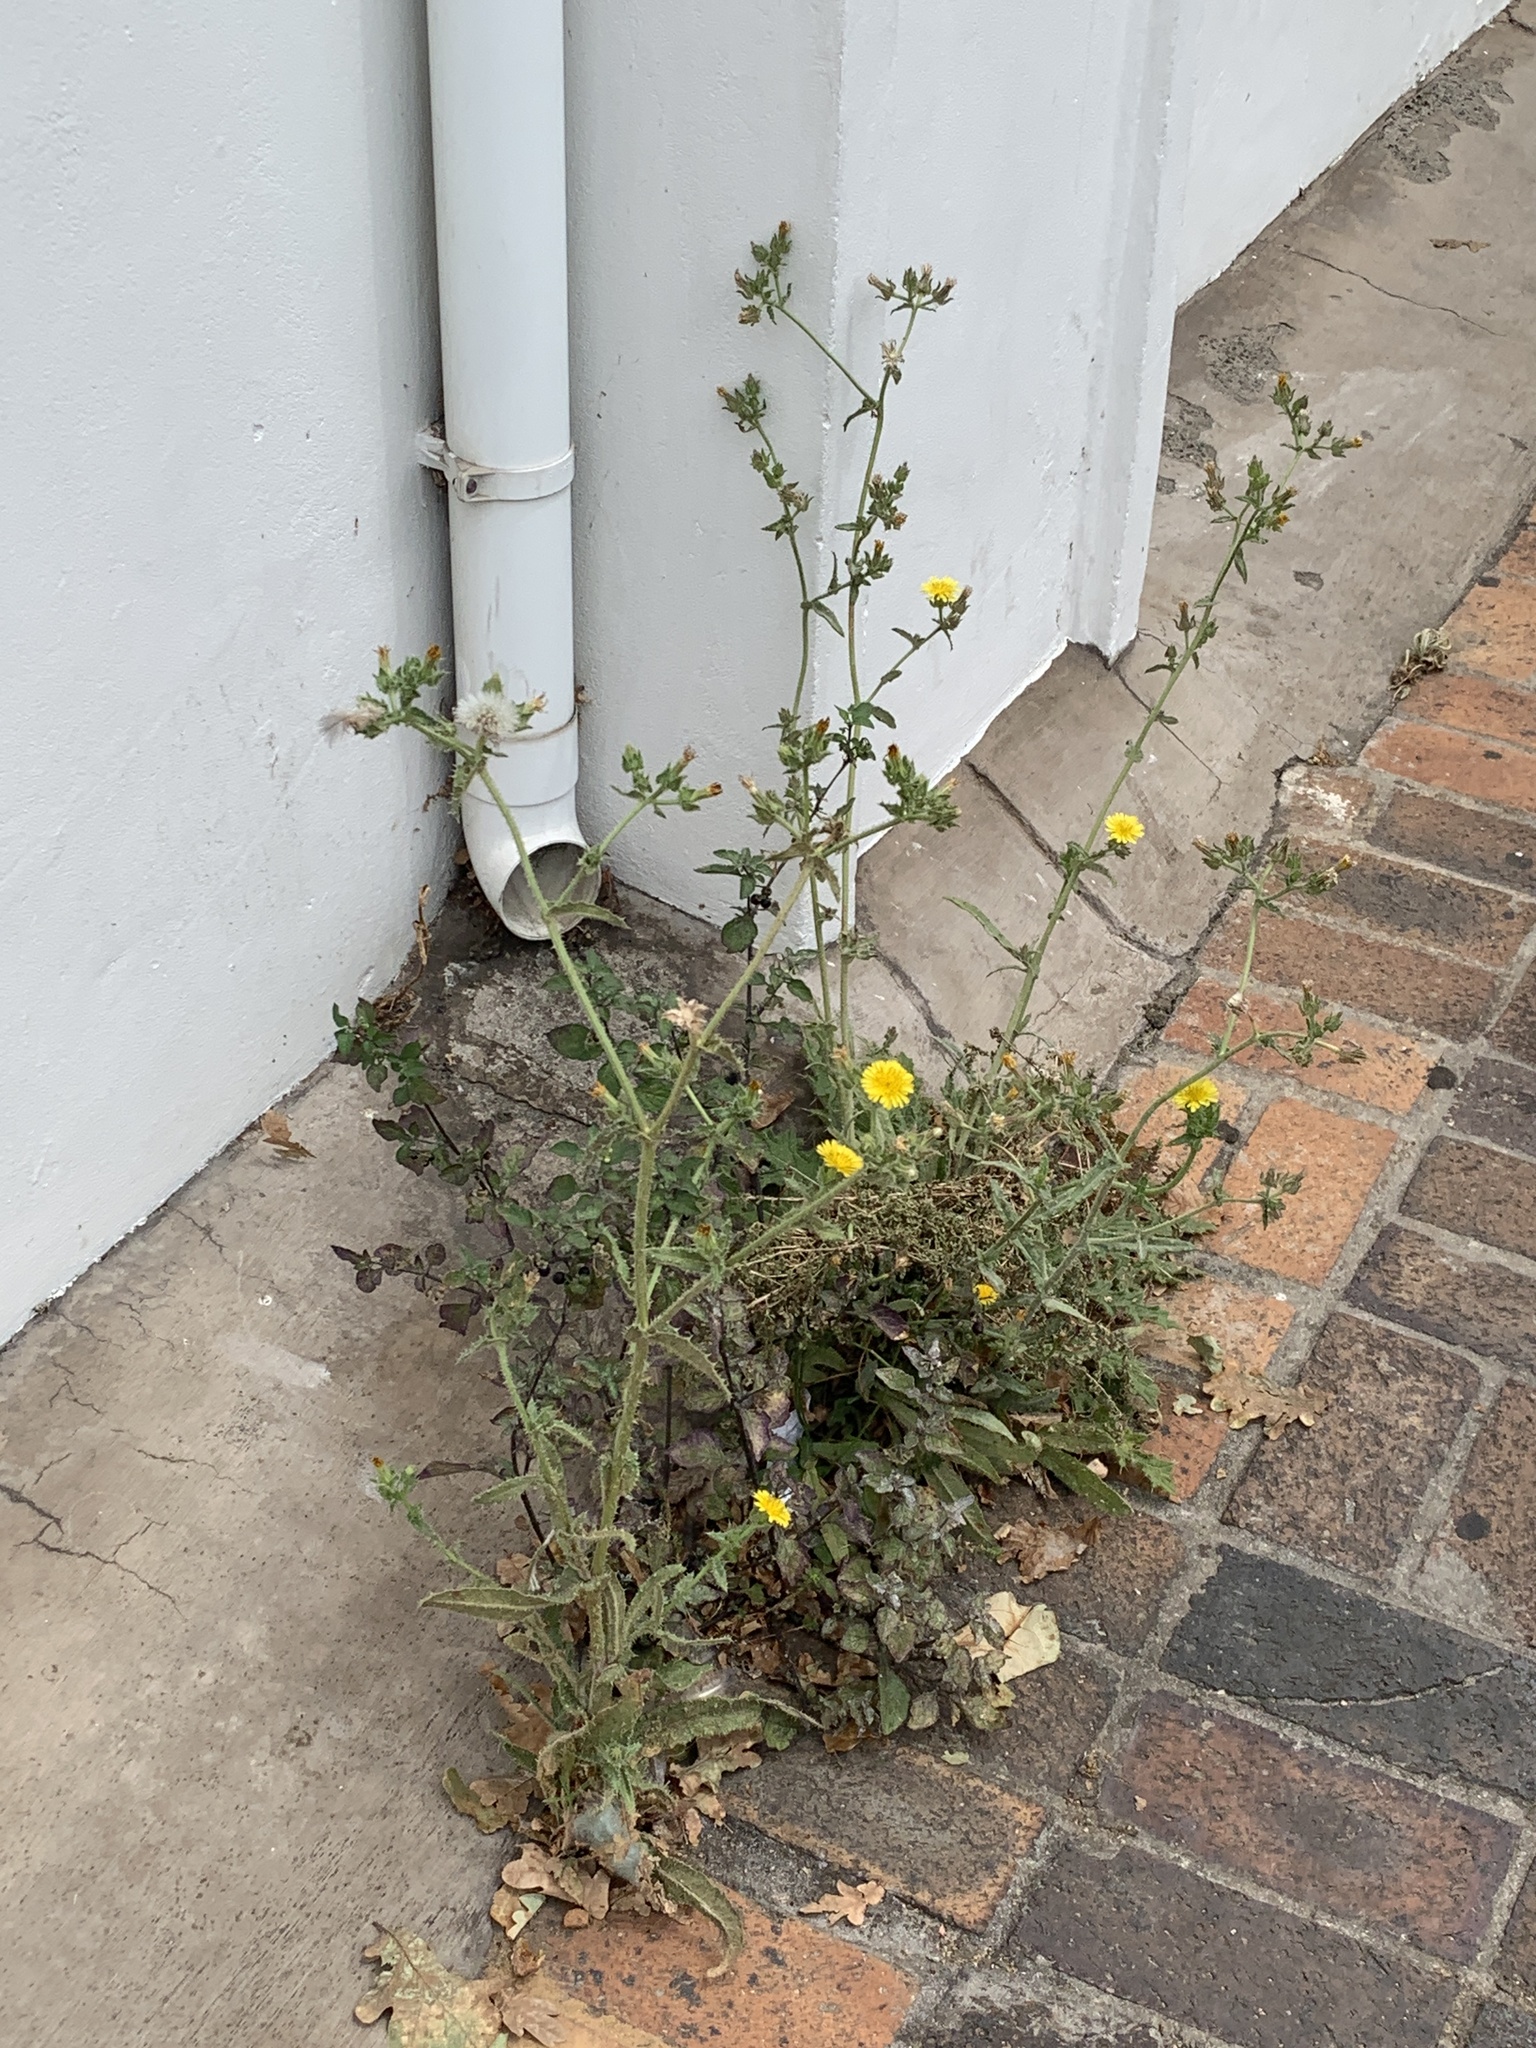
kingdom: Plantae
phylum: Tracheophyta
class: Magnoliopsida
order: Asterales
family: Asteraceae
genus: Helminthotheca
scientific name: Helminthotheca echioides
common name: Ox-tongue
